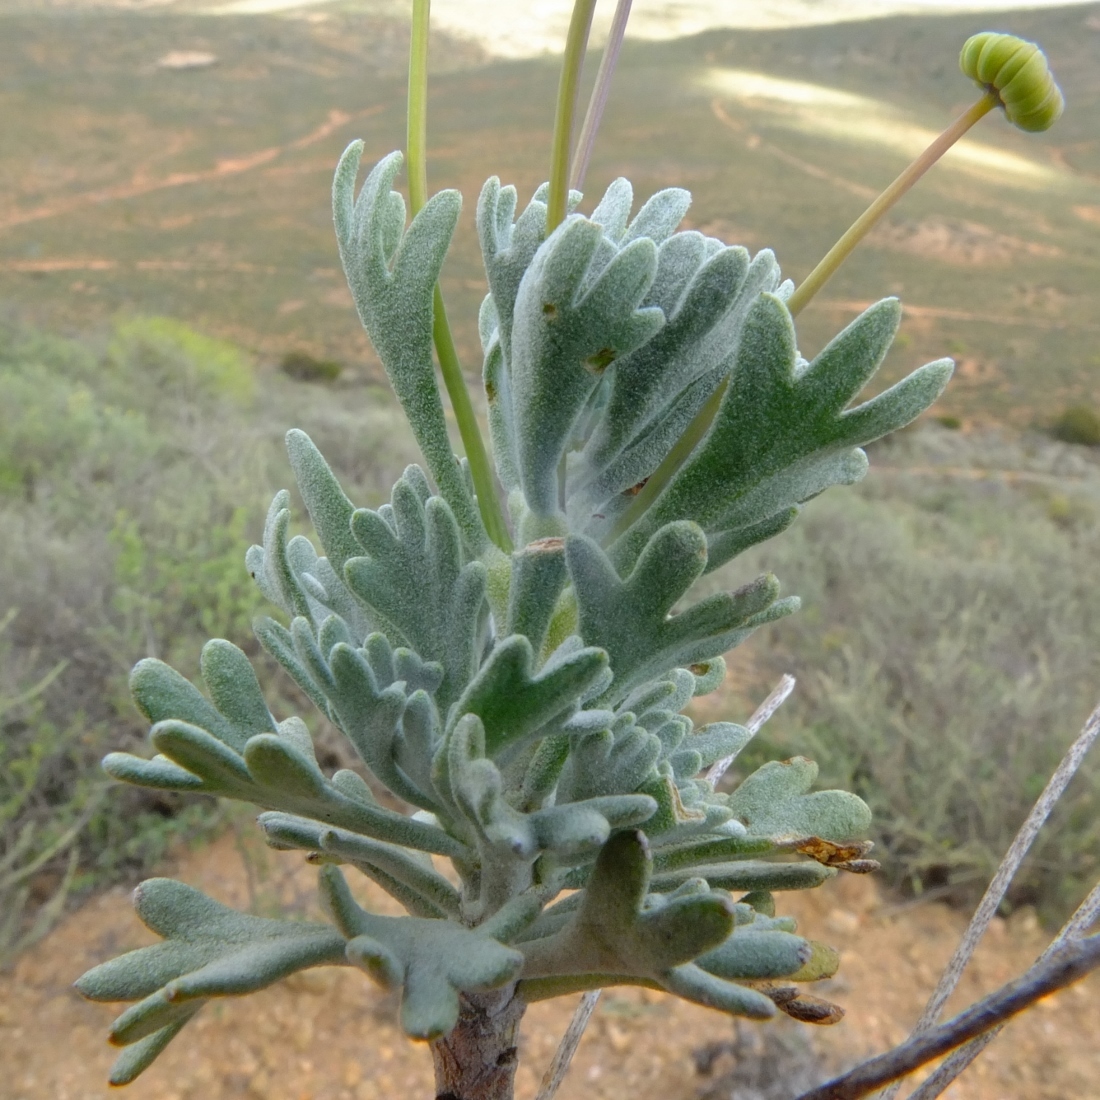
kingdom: Plantae
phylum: Tracheophyta
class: Magnoliopsida
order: Asterales
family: Asteraceae
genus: Euryops
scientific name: Euryops dregeanus
